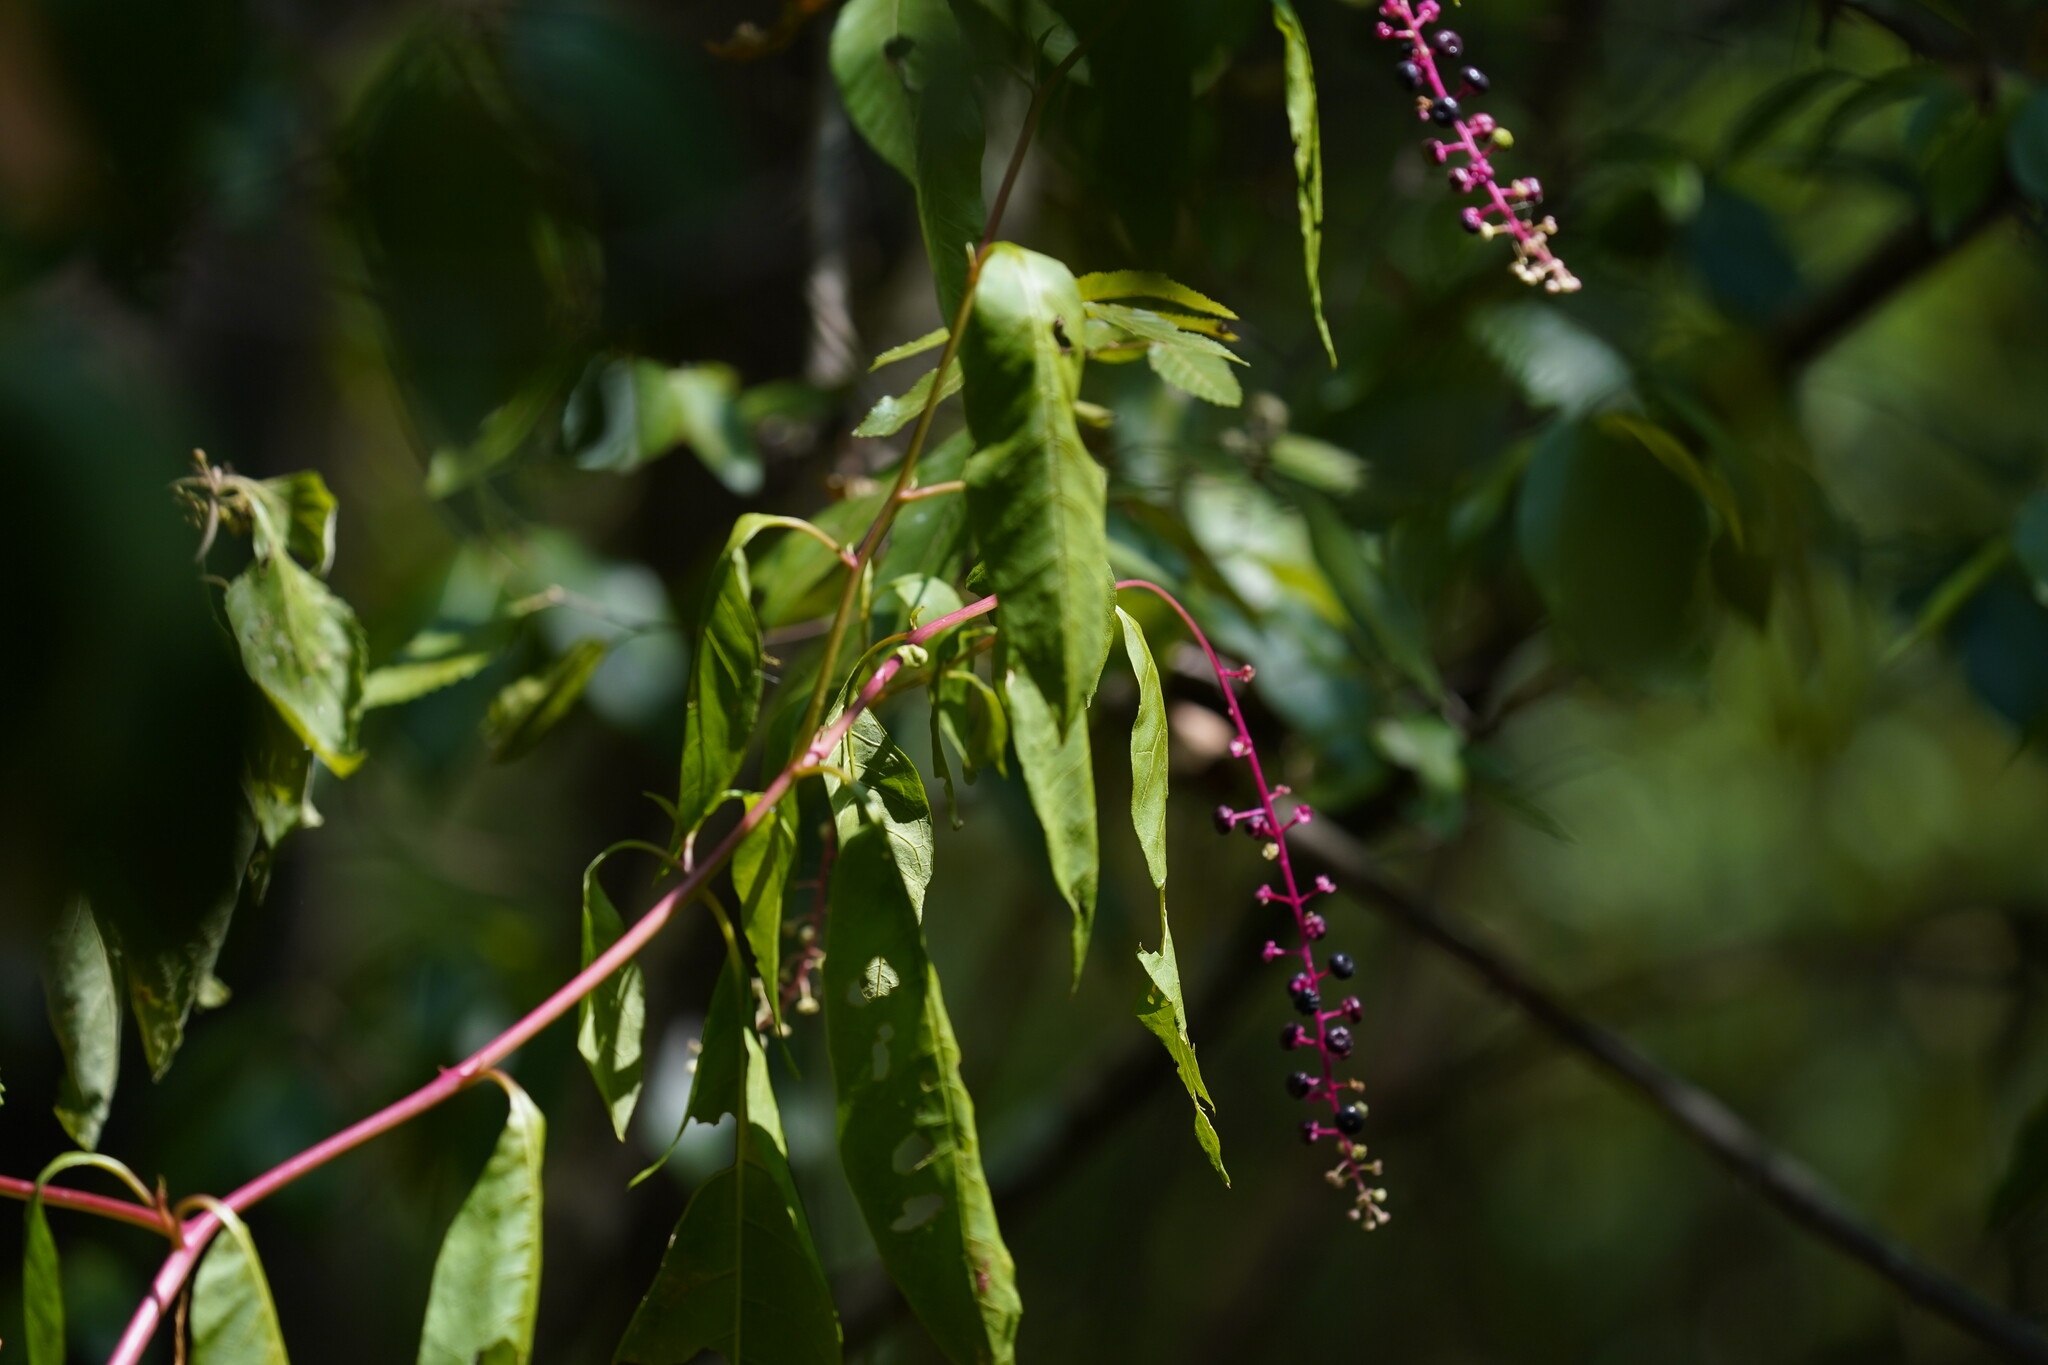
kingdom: Plantae
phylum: Tracheophyta
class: Magnoliopsida
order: Caryophyllales
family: Phytolaccaceae
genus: Phytolacca
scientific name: Phytolacca americana
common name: American pokeweed
